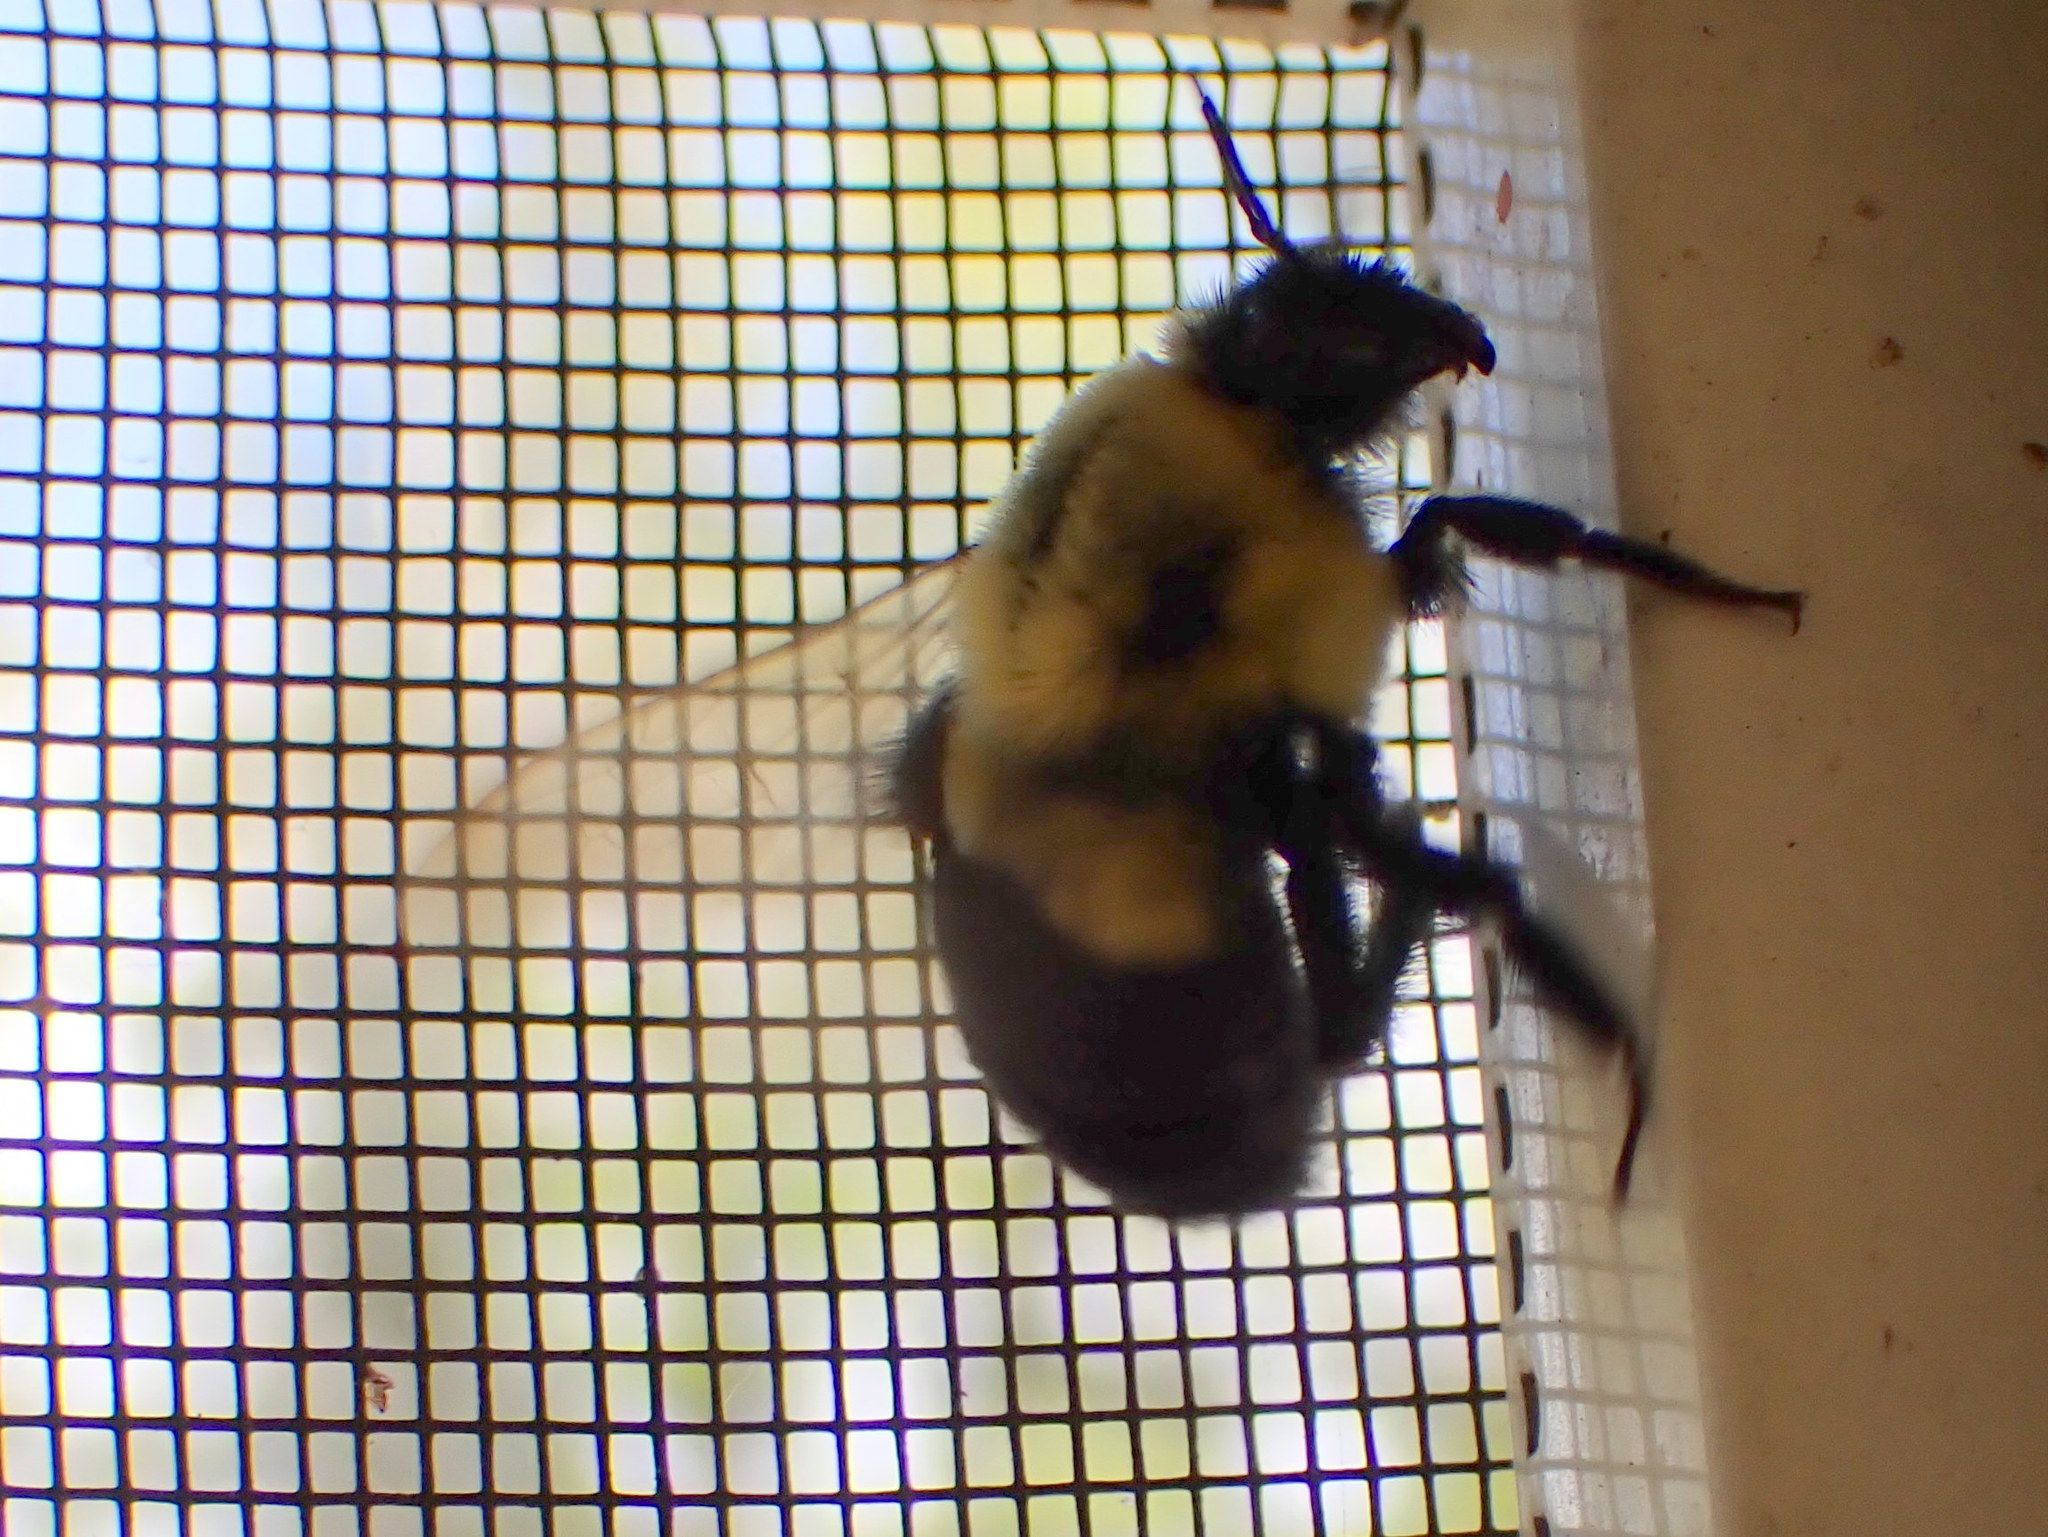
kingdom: Animalia
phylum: Arthropoda
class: Insecta
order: Hymenoptera
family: Apidae
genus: Bombus
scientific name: Bombus impatiens
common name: Common eastern bumble bee
